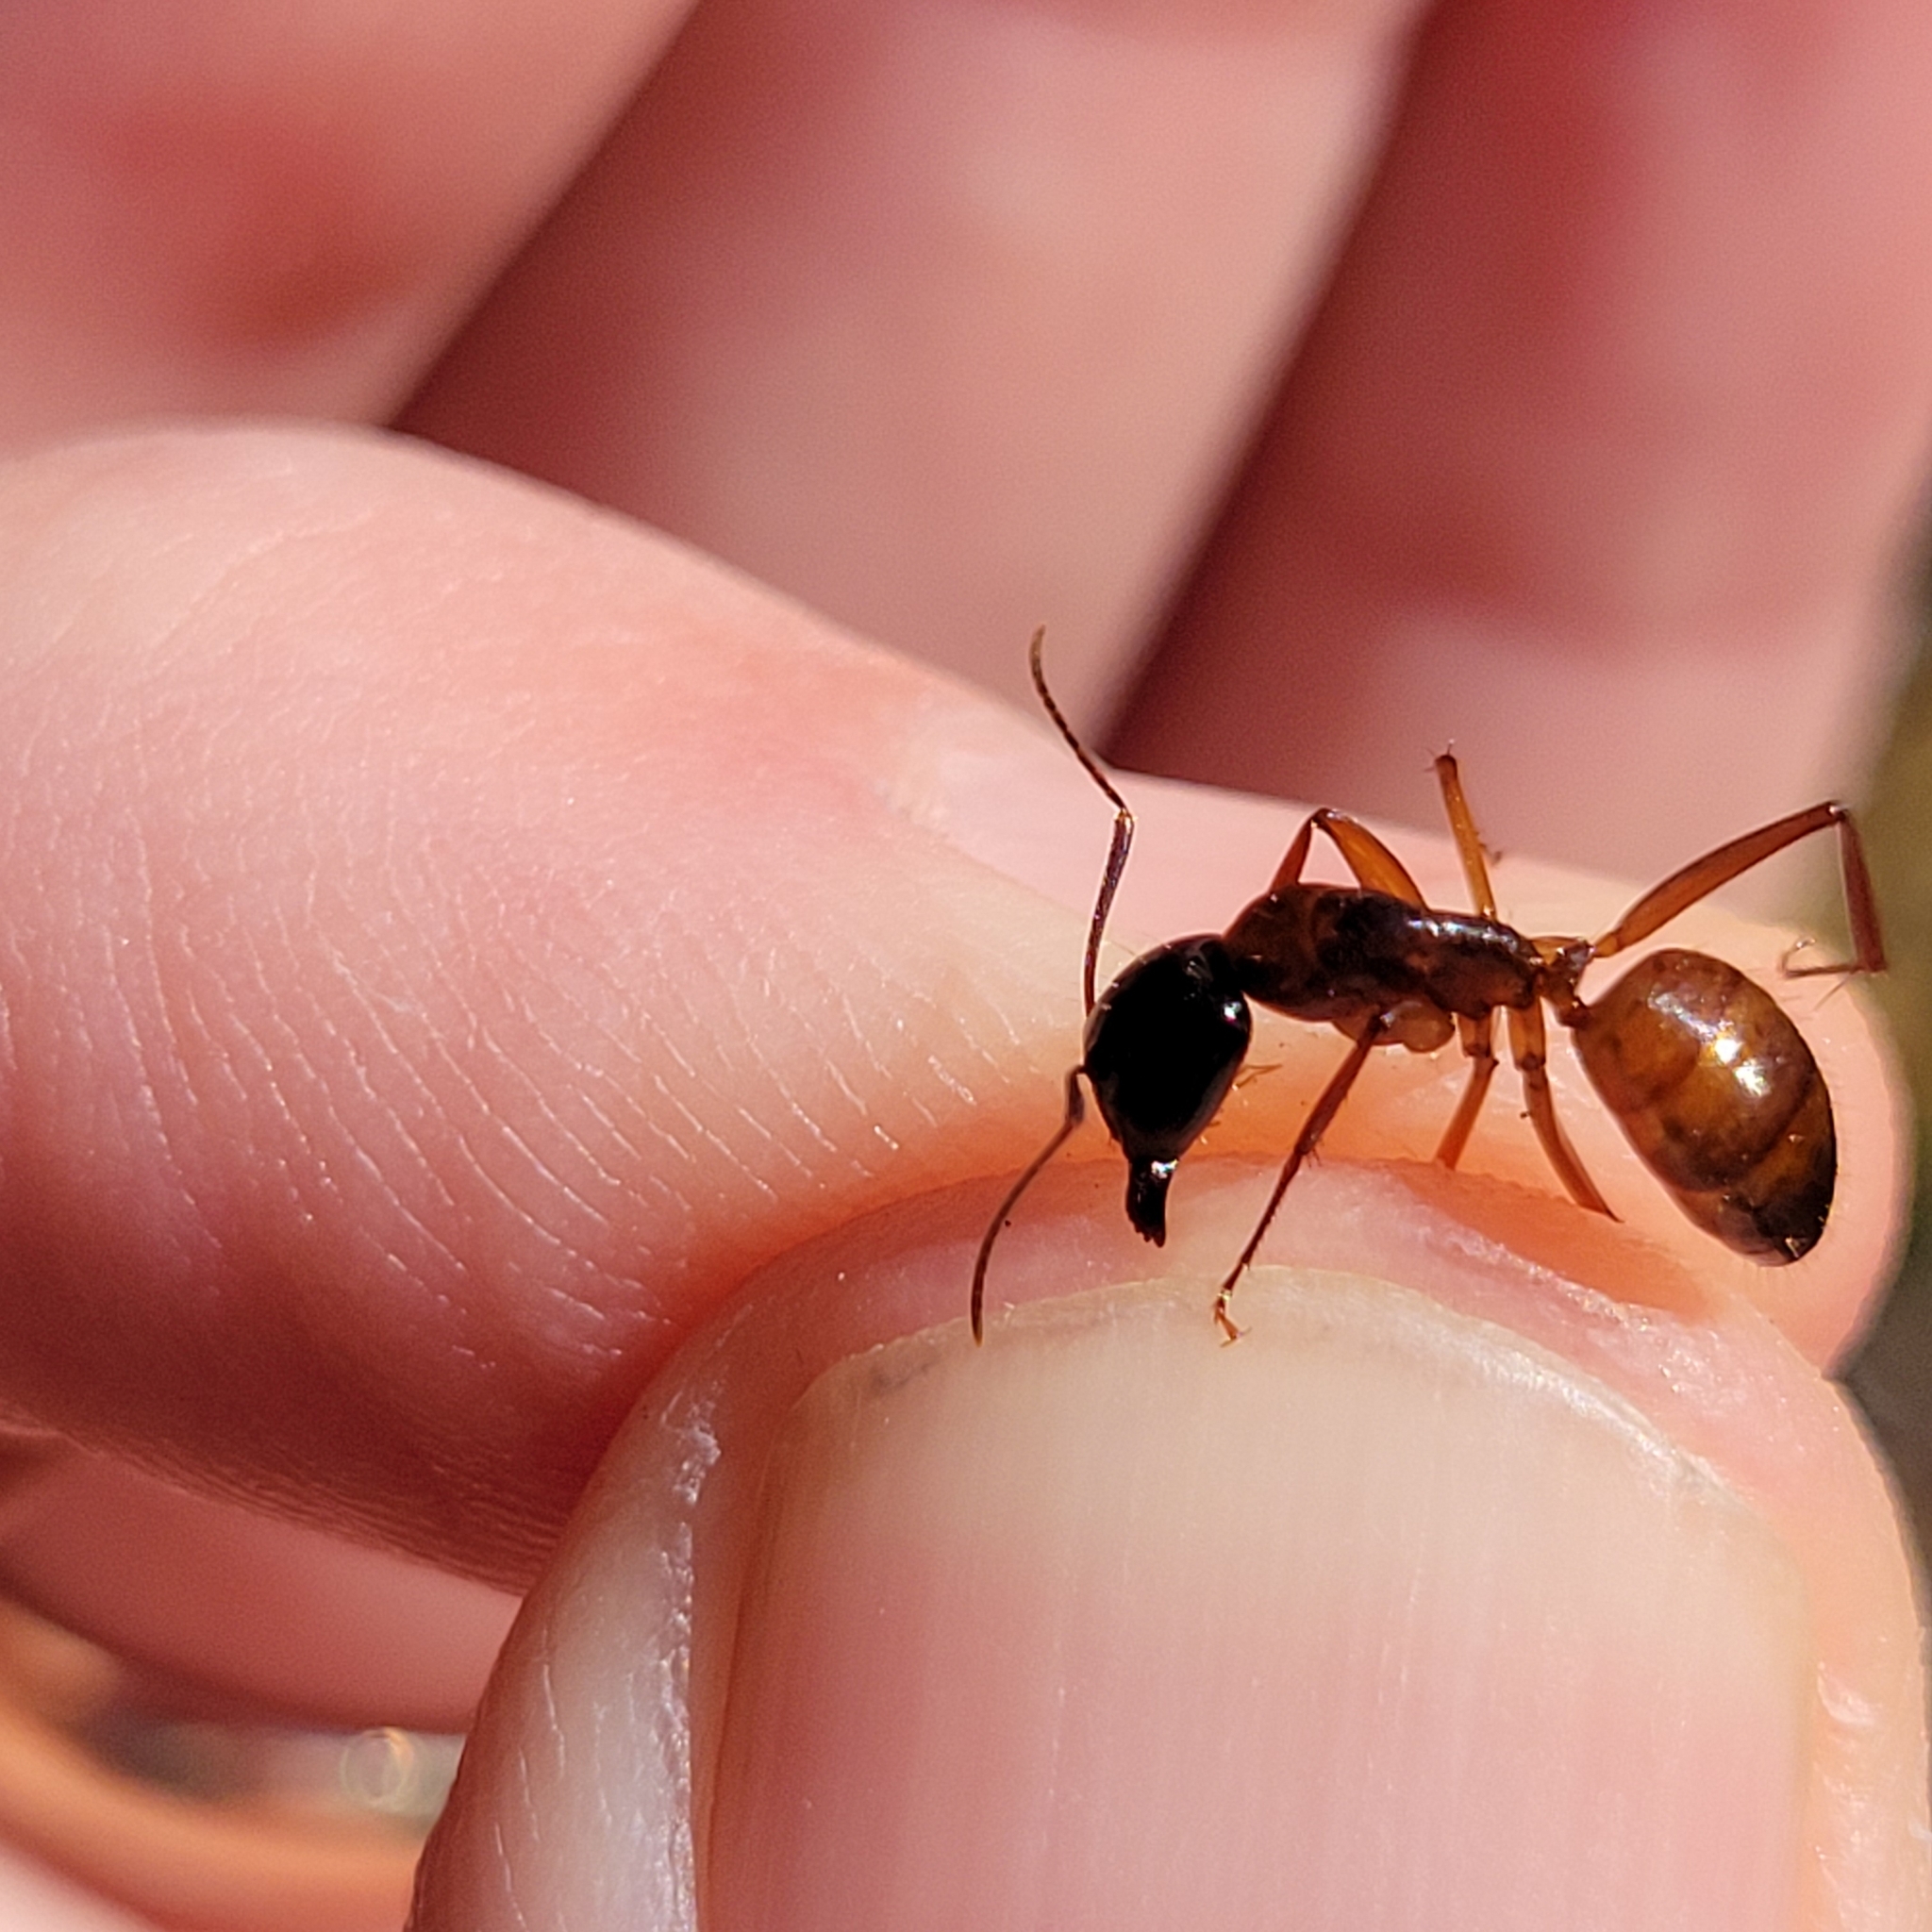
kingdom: Animalia
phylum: Arthropoda
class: Insecta
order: Hymenoptera
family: Formicidae
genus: Camponotus
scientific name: Camponotus americanus
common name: American carpenter ant
